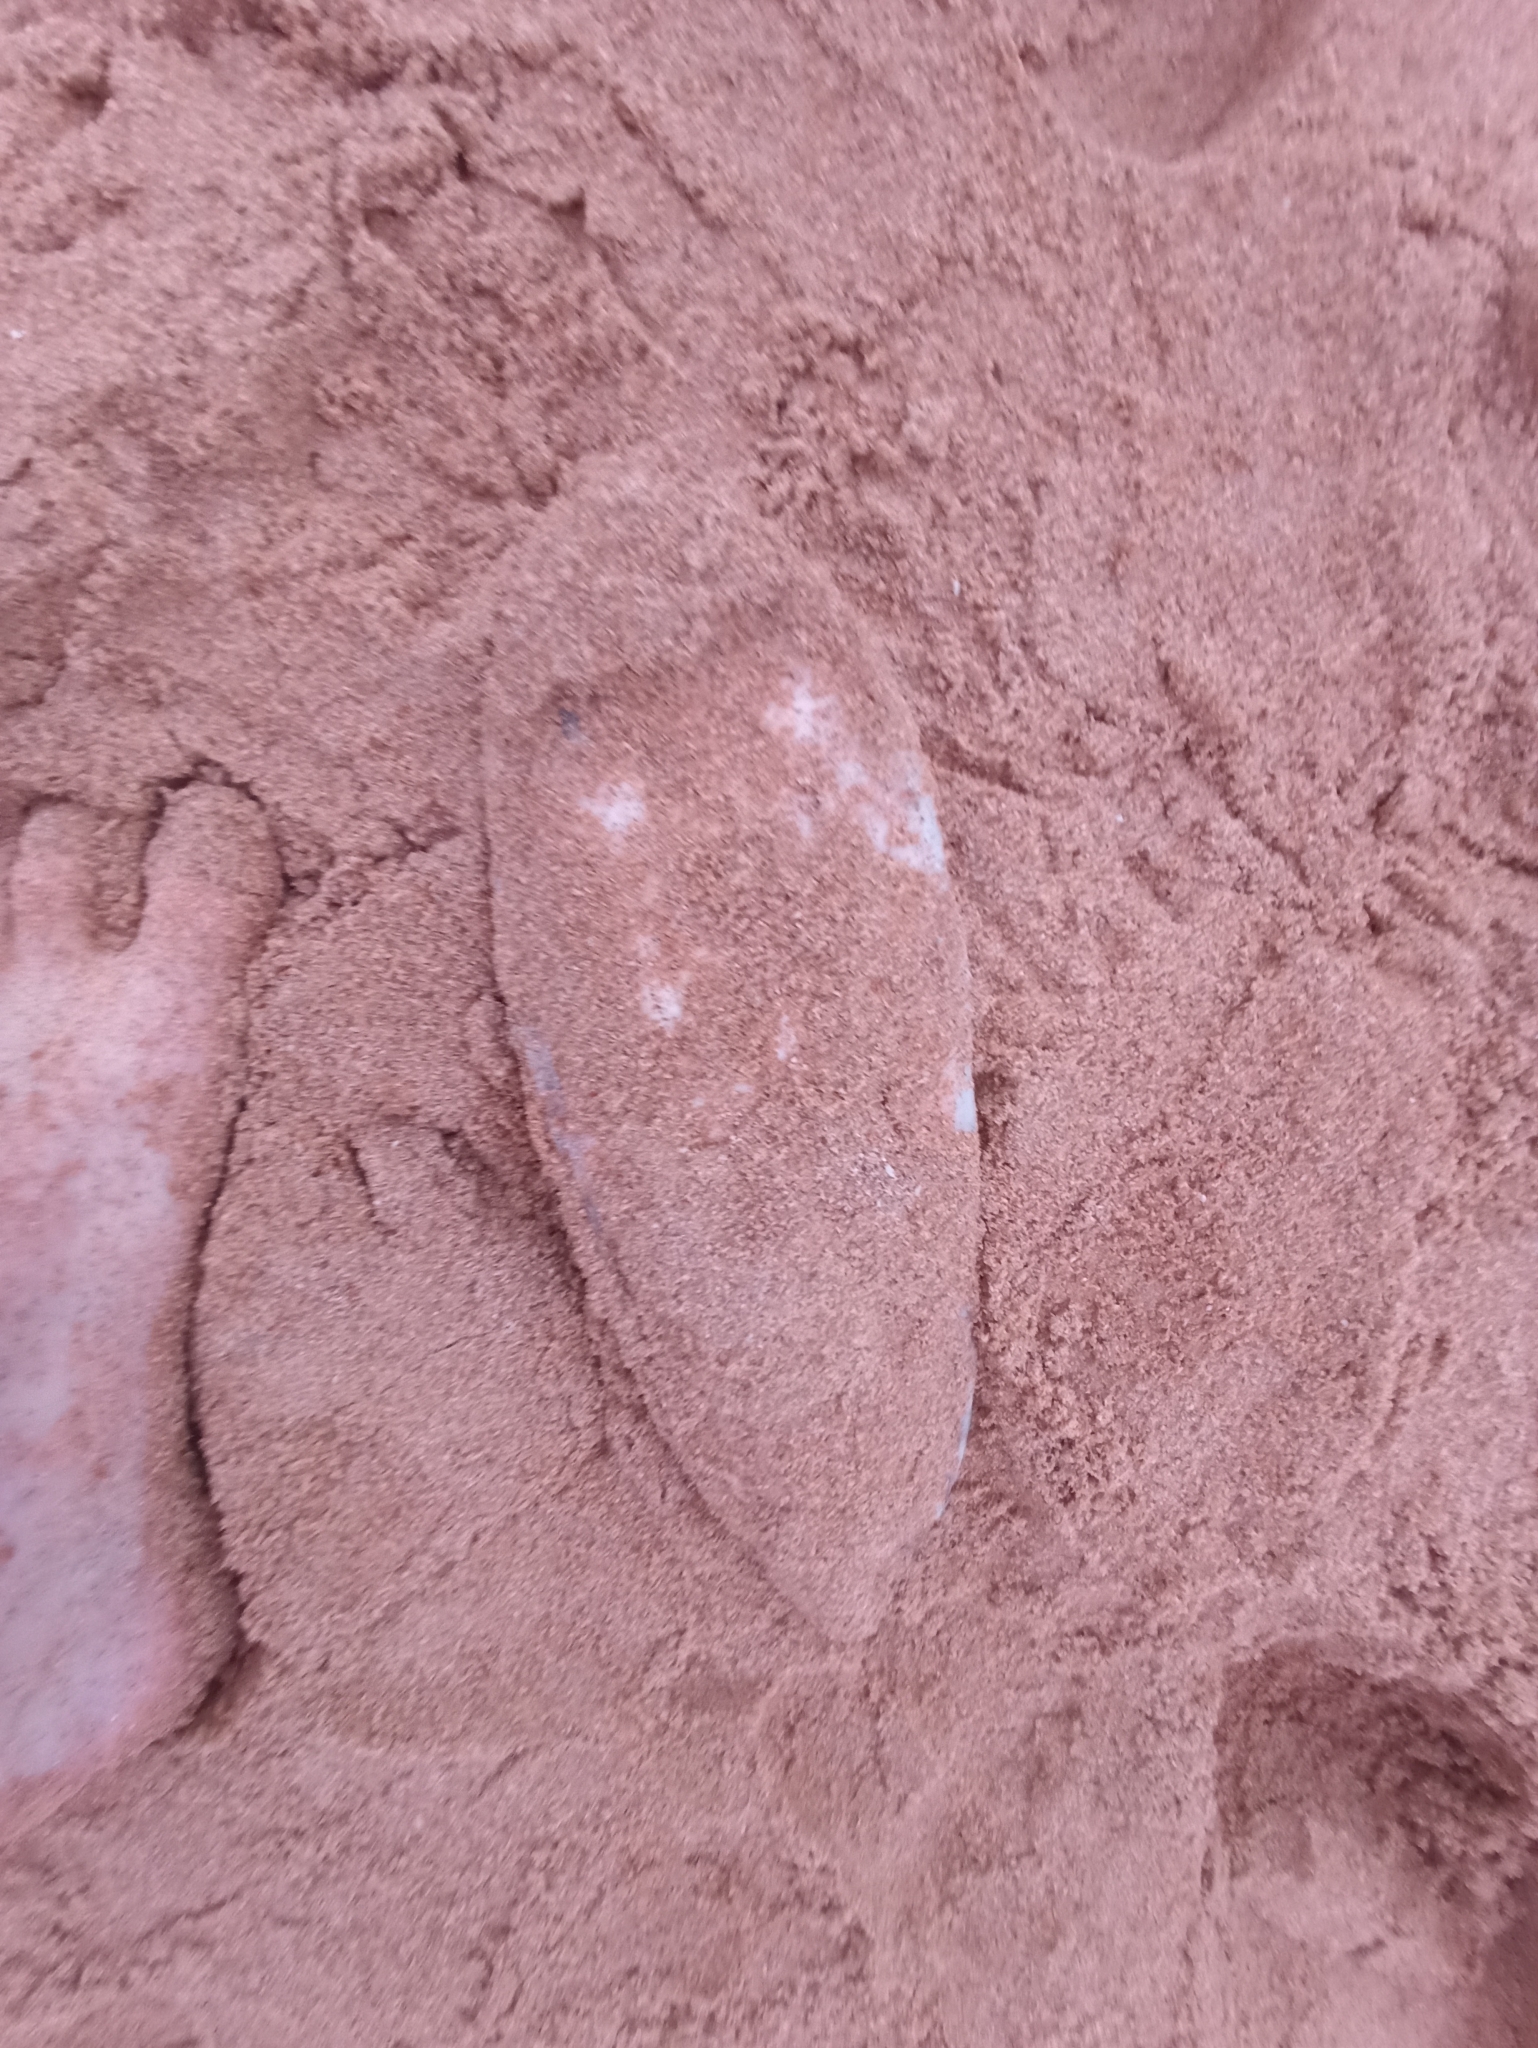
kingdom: Animalia
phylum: Mollusca
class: Cephalopoda
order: Sepiida
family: Sepiidae
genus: Ascarosepion
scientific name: Ascarosepion apama
